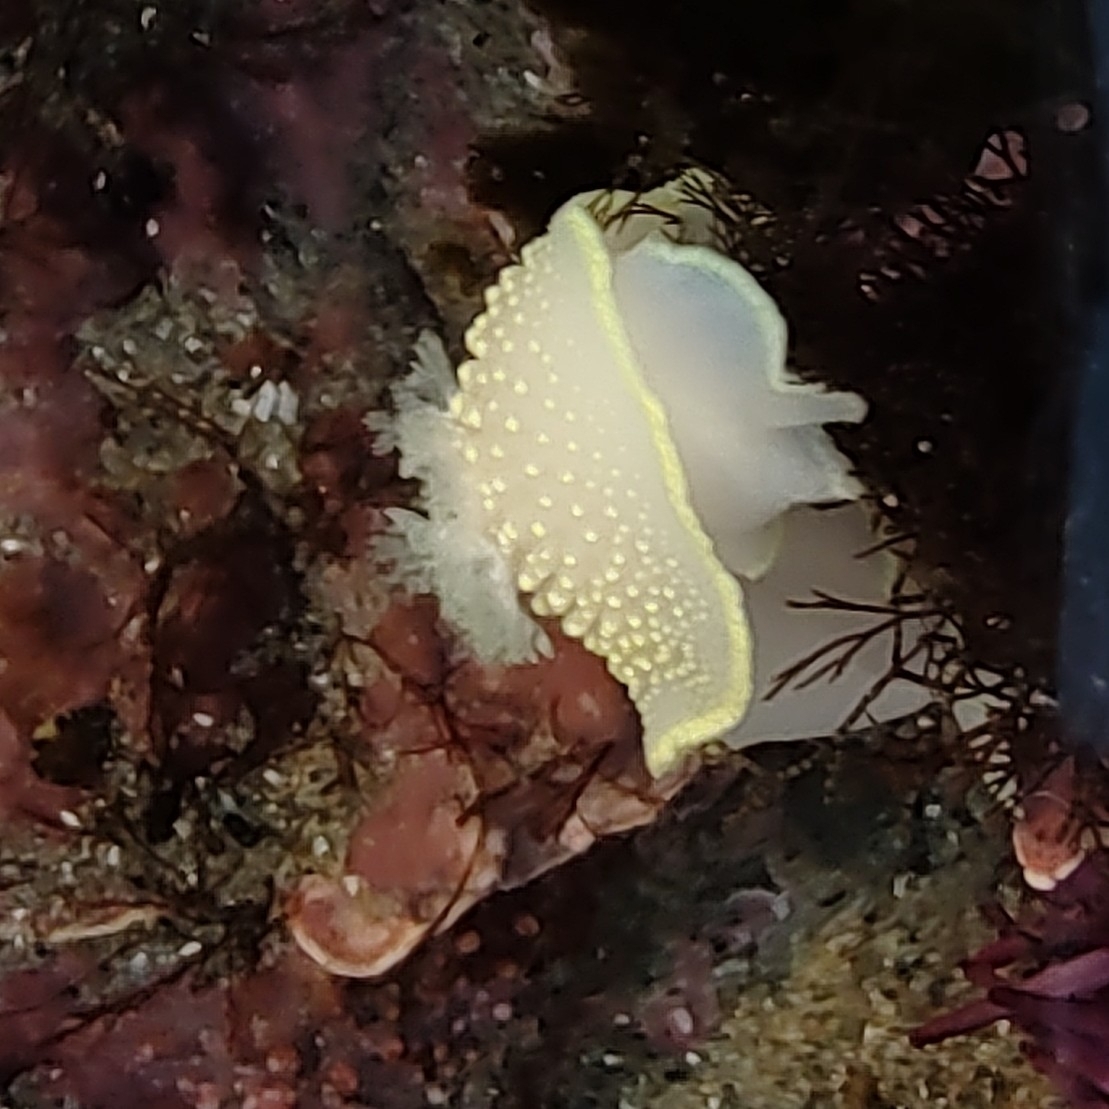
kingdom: Animalia
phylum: Mollusca
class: Gastropoda
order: Nudibranchia
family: Cadlinidae
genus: Cadlina
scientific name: Cadlina luteomarginata
